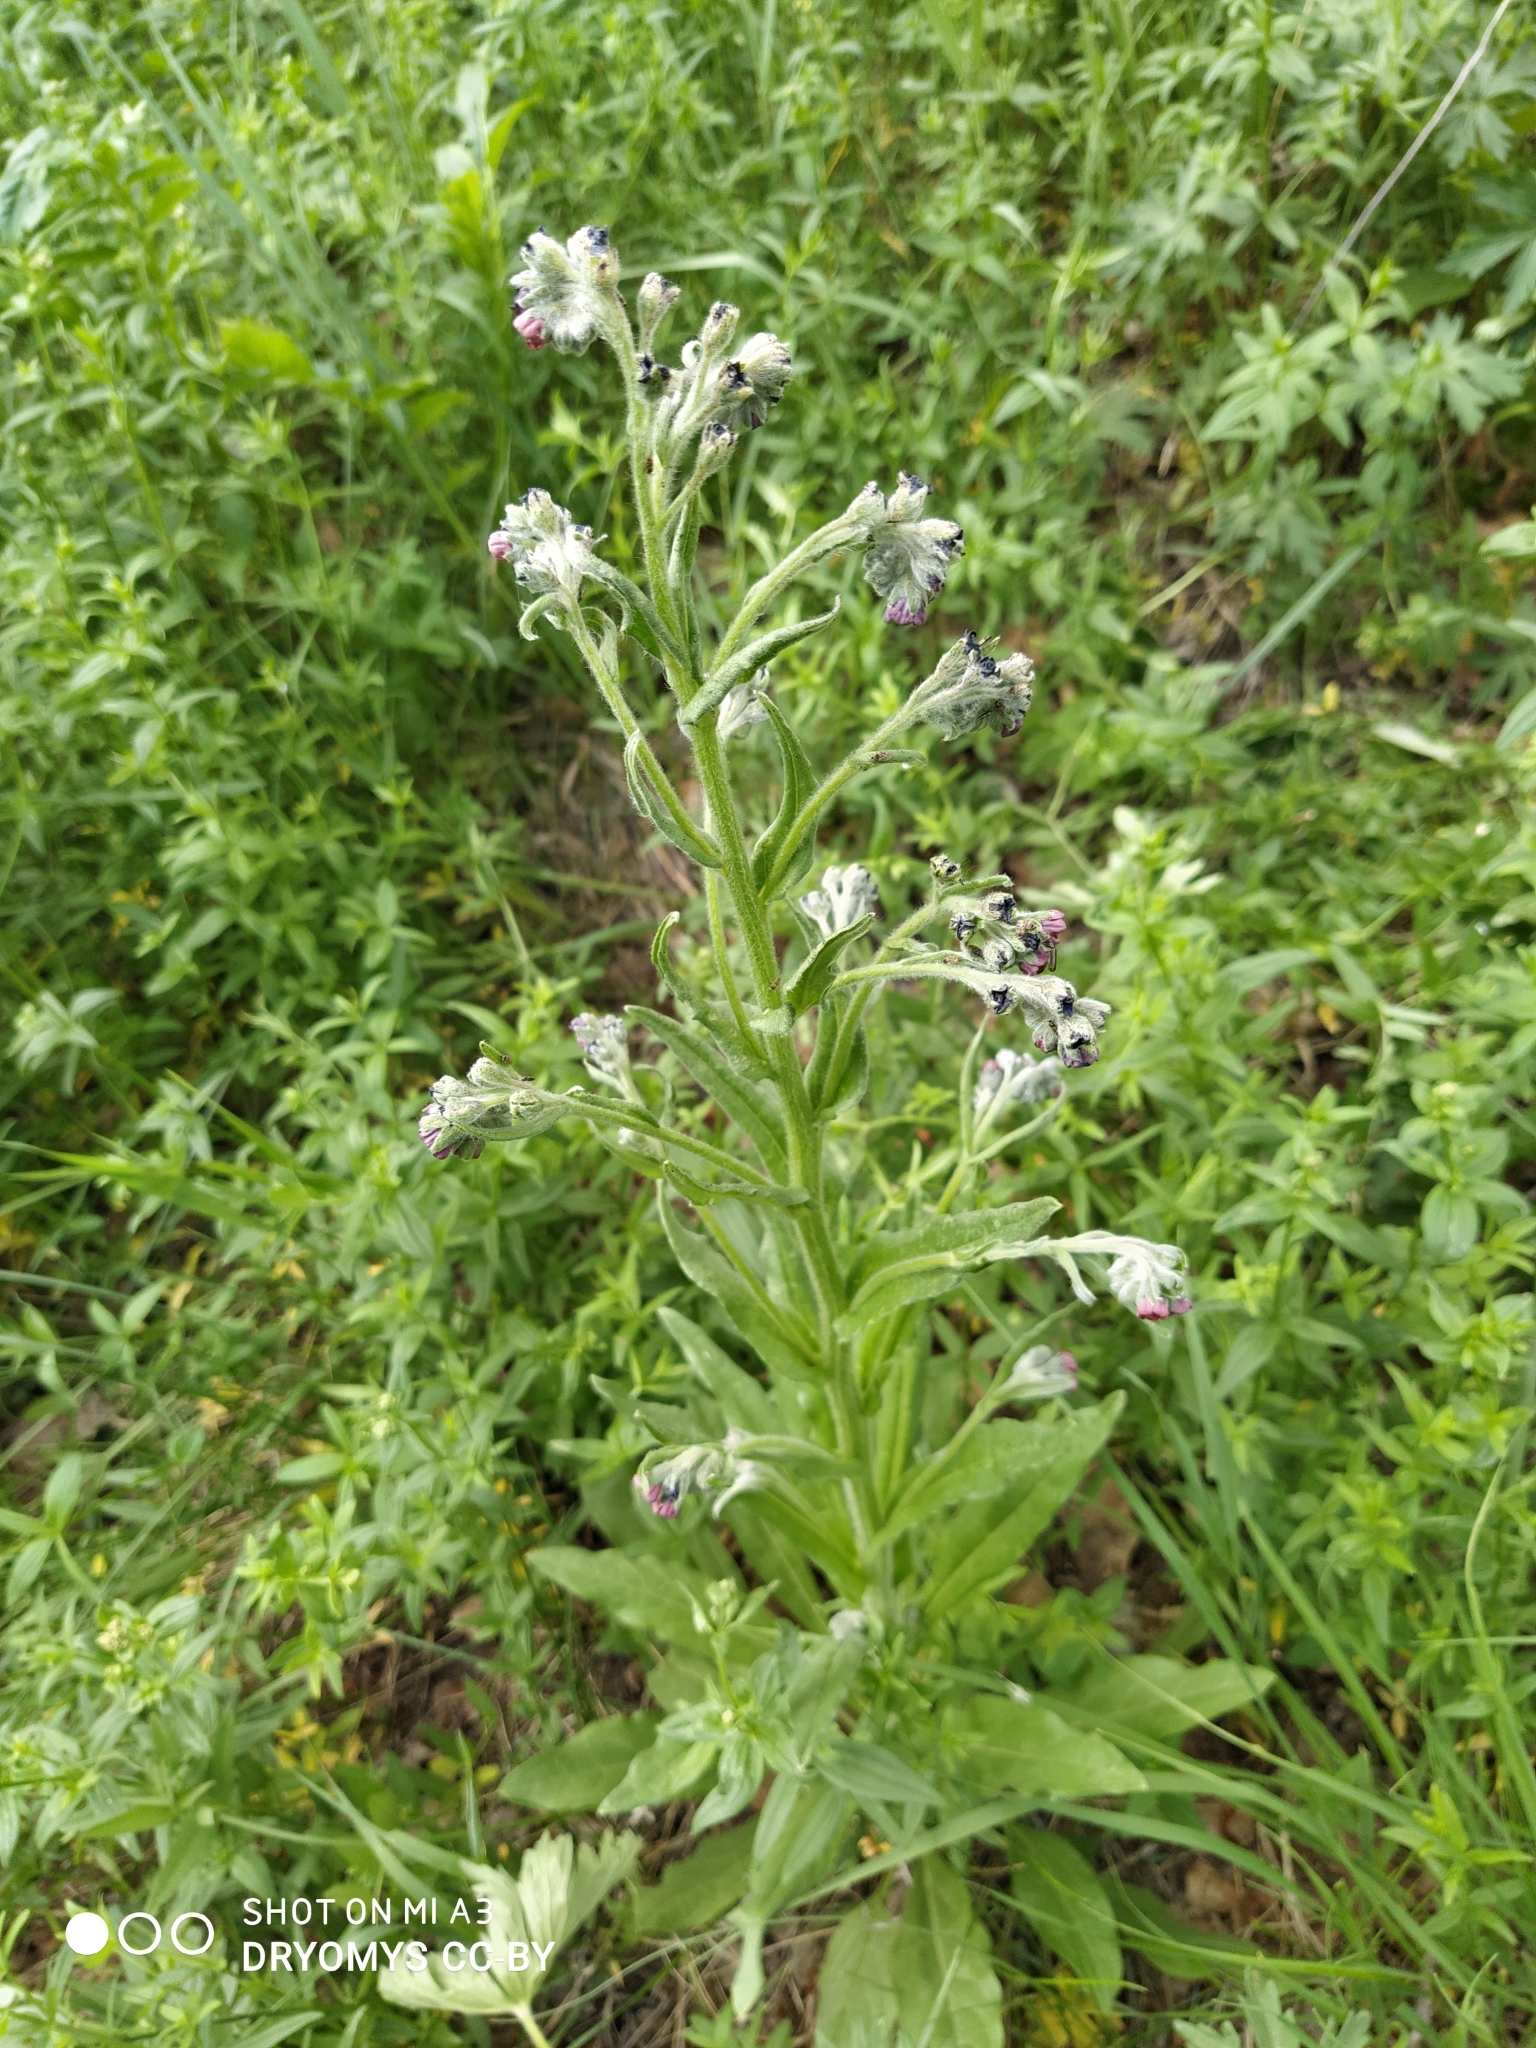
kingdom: Plantae
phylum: Tracheophyta
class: Magnoliopsida
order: Boraginales
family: Boraginaceae
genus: Cynoglossum
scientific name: Cynoglossum officinale
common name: Hound's-tongue
